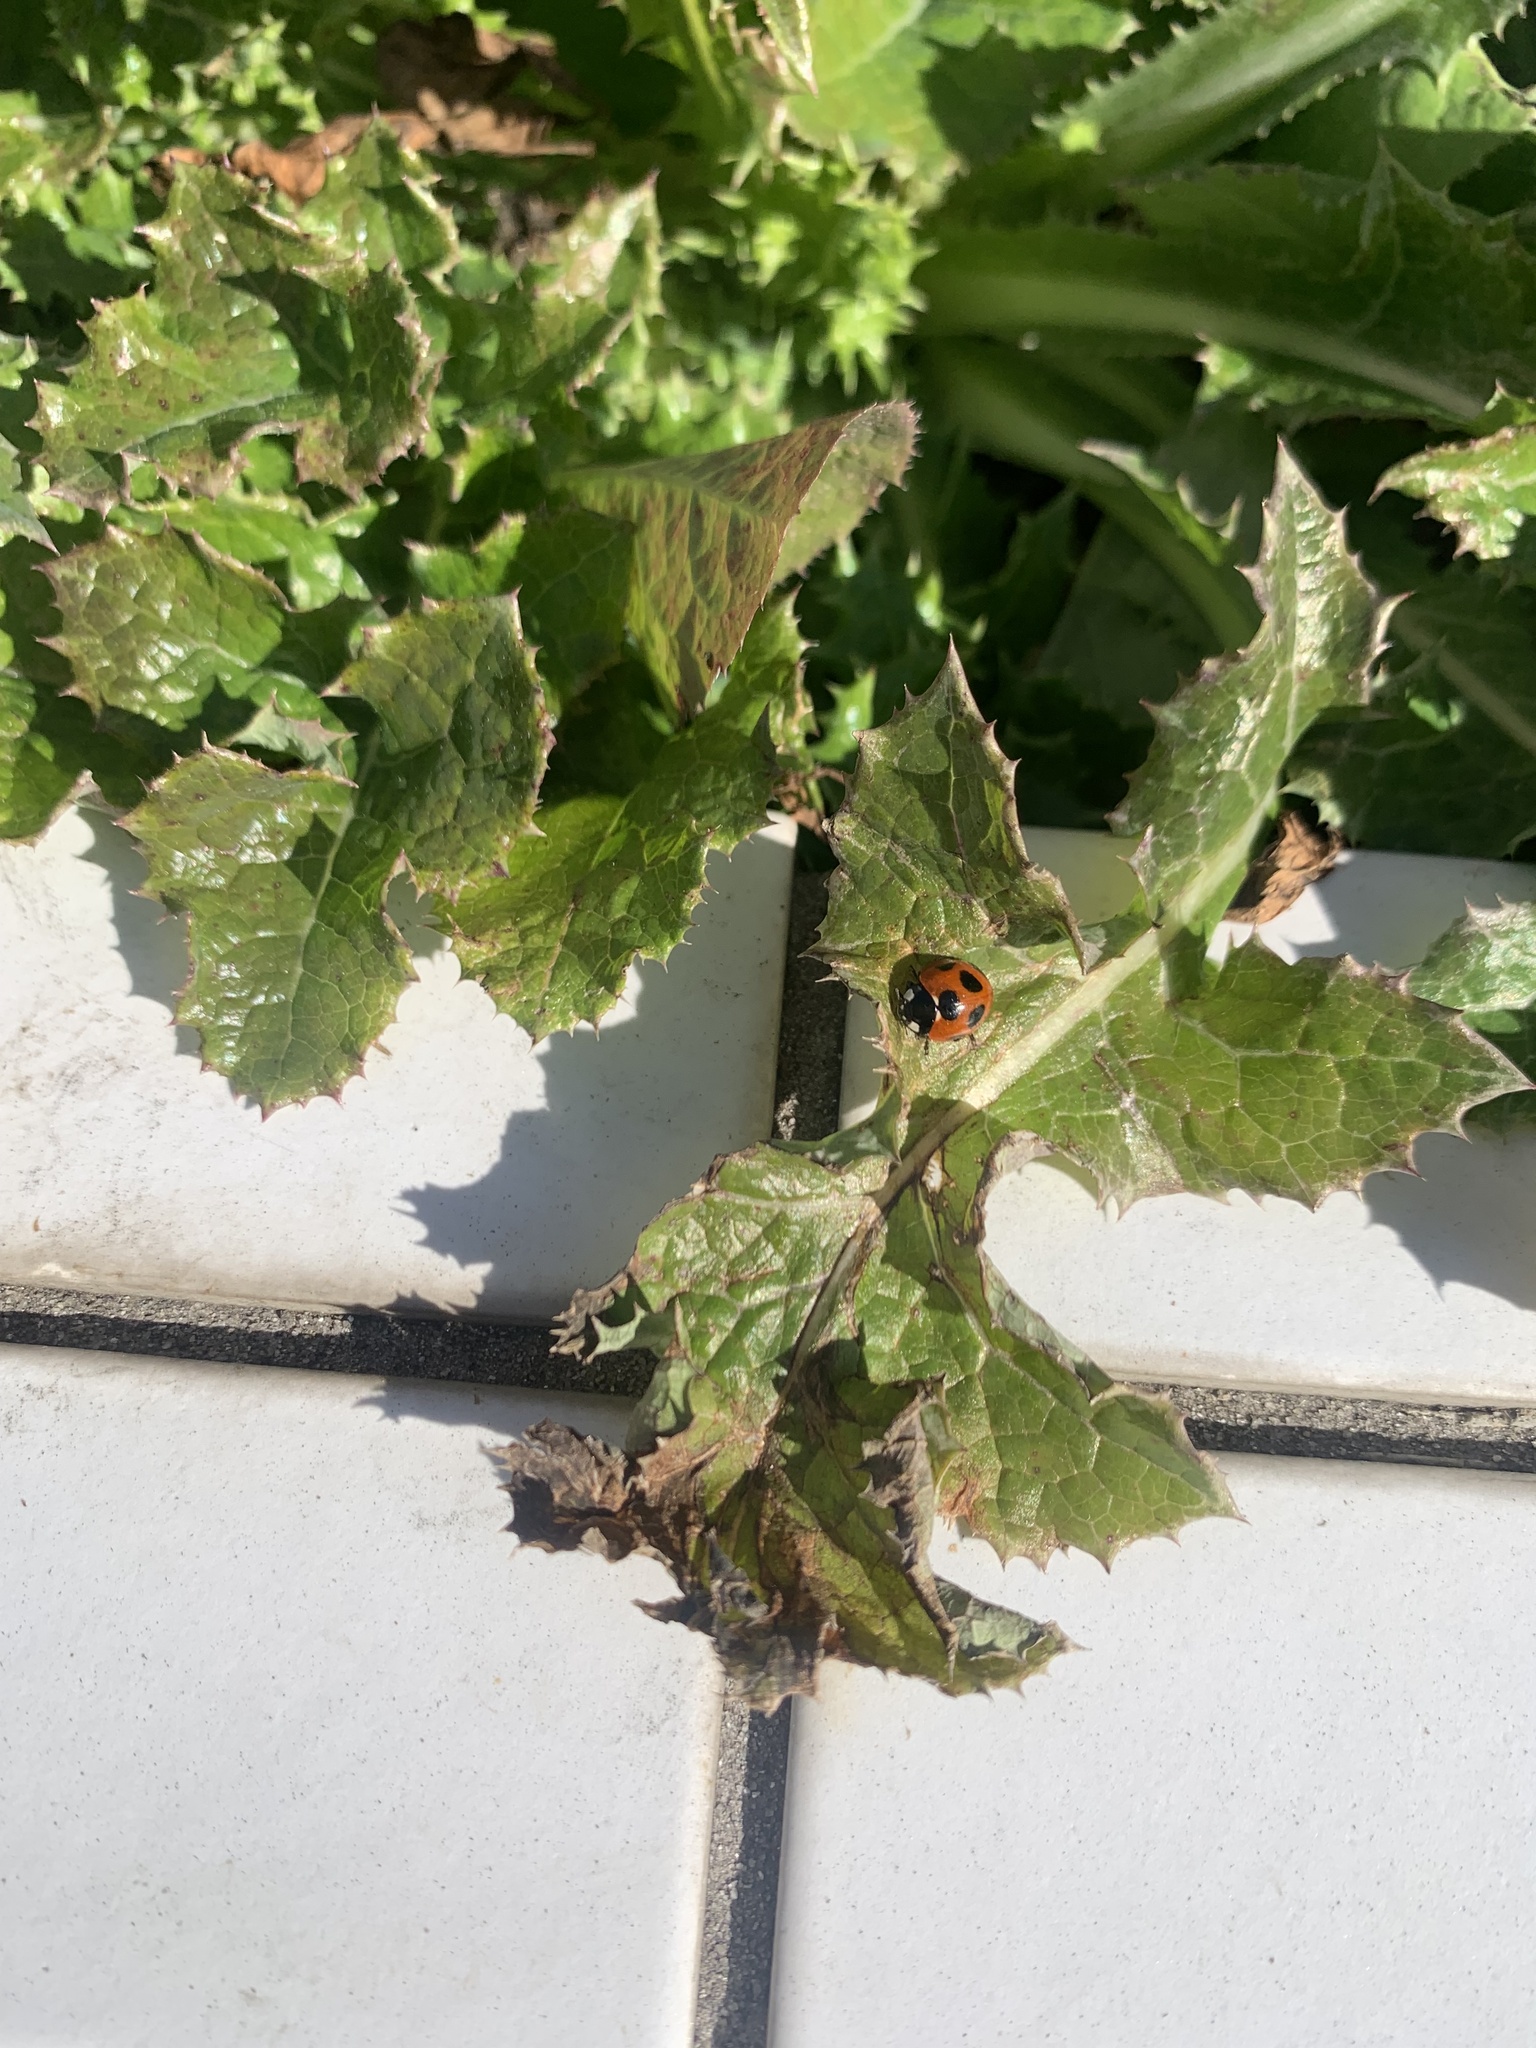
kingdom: Animalia
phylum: Arthropoda
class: Insecta
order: Coleoptera
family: Coccinellidae
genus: Coccinella
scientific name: Coccinella septempunctata
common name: Sevenspotted lady beetle
